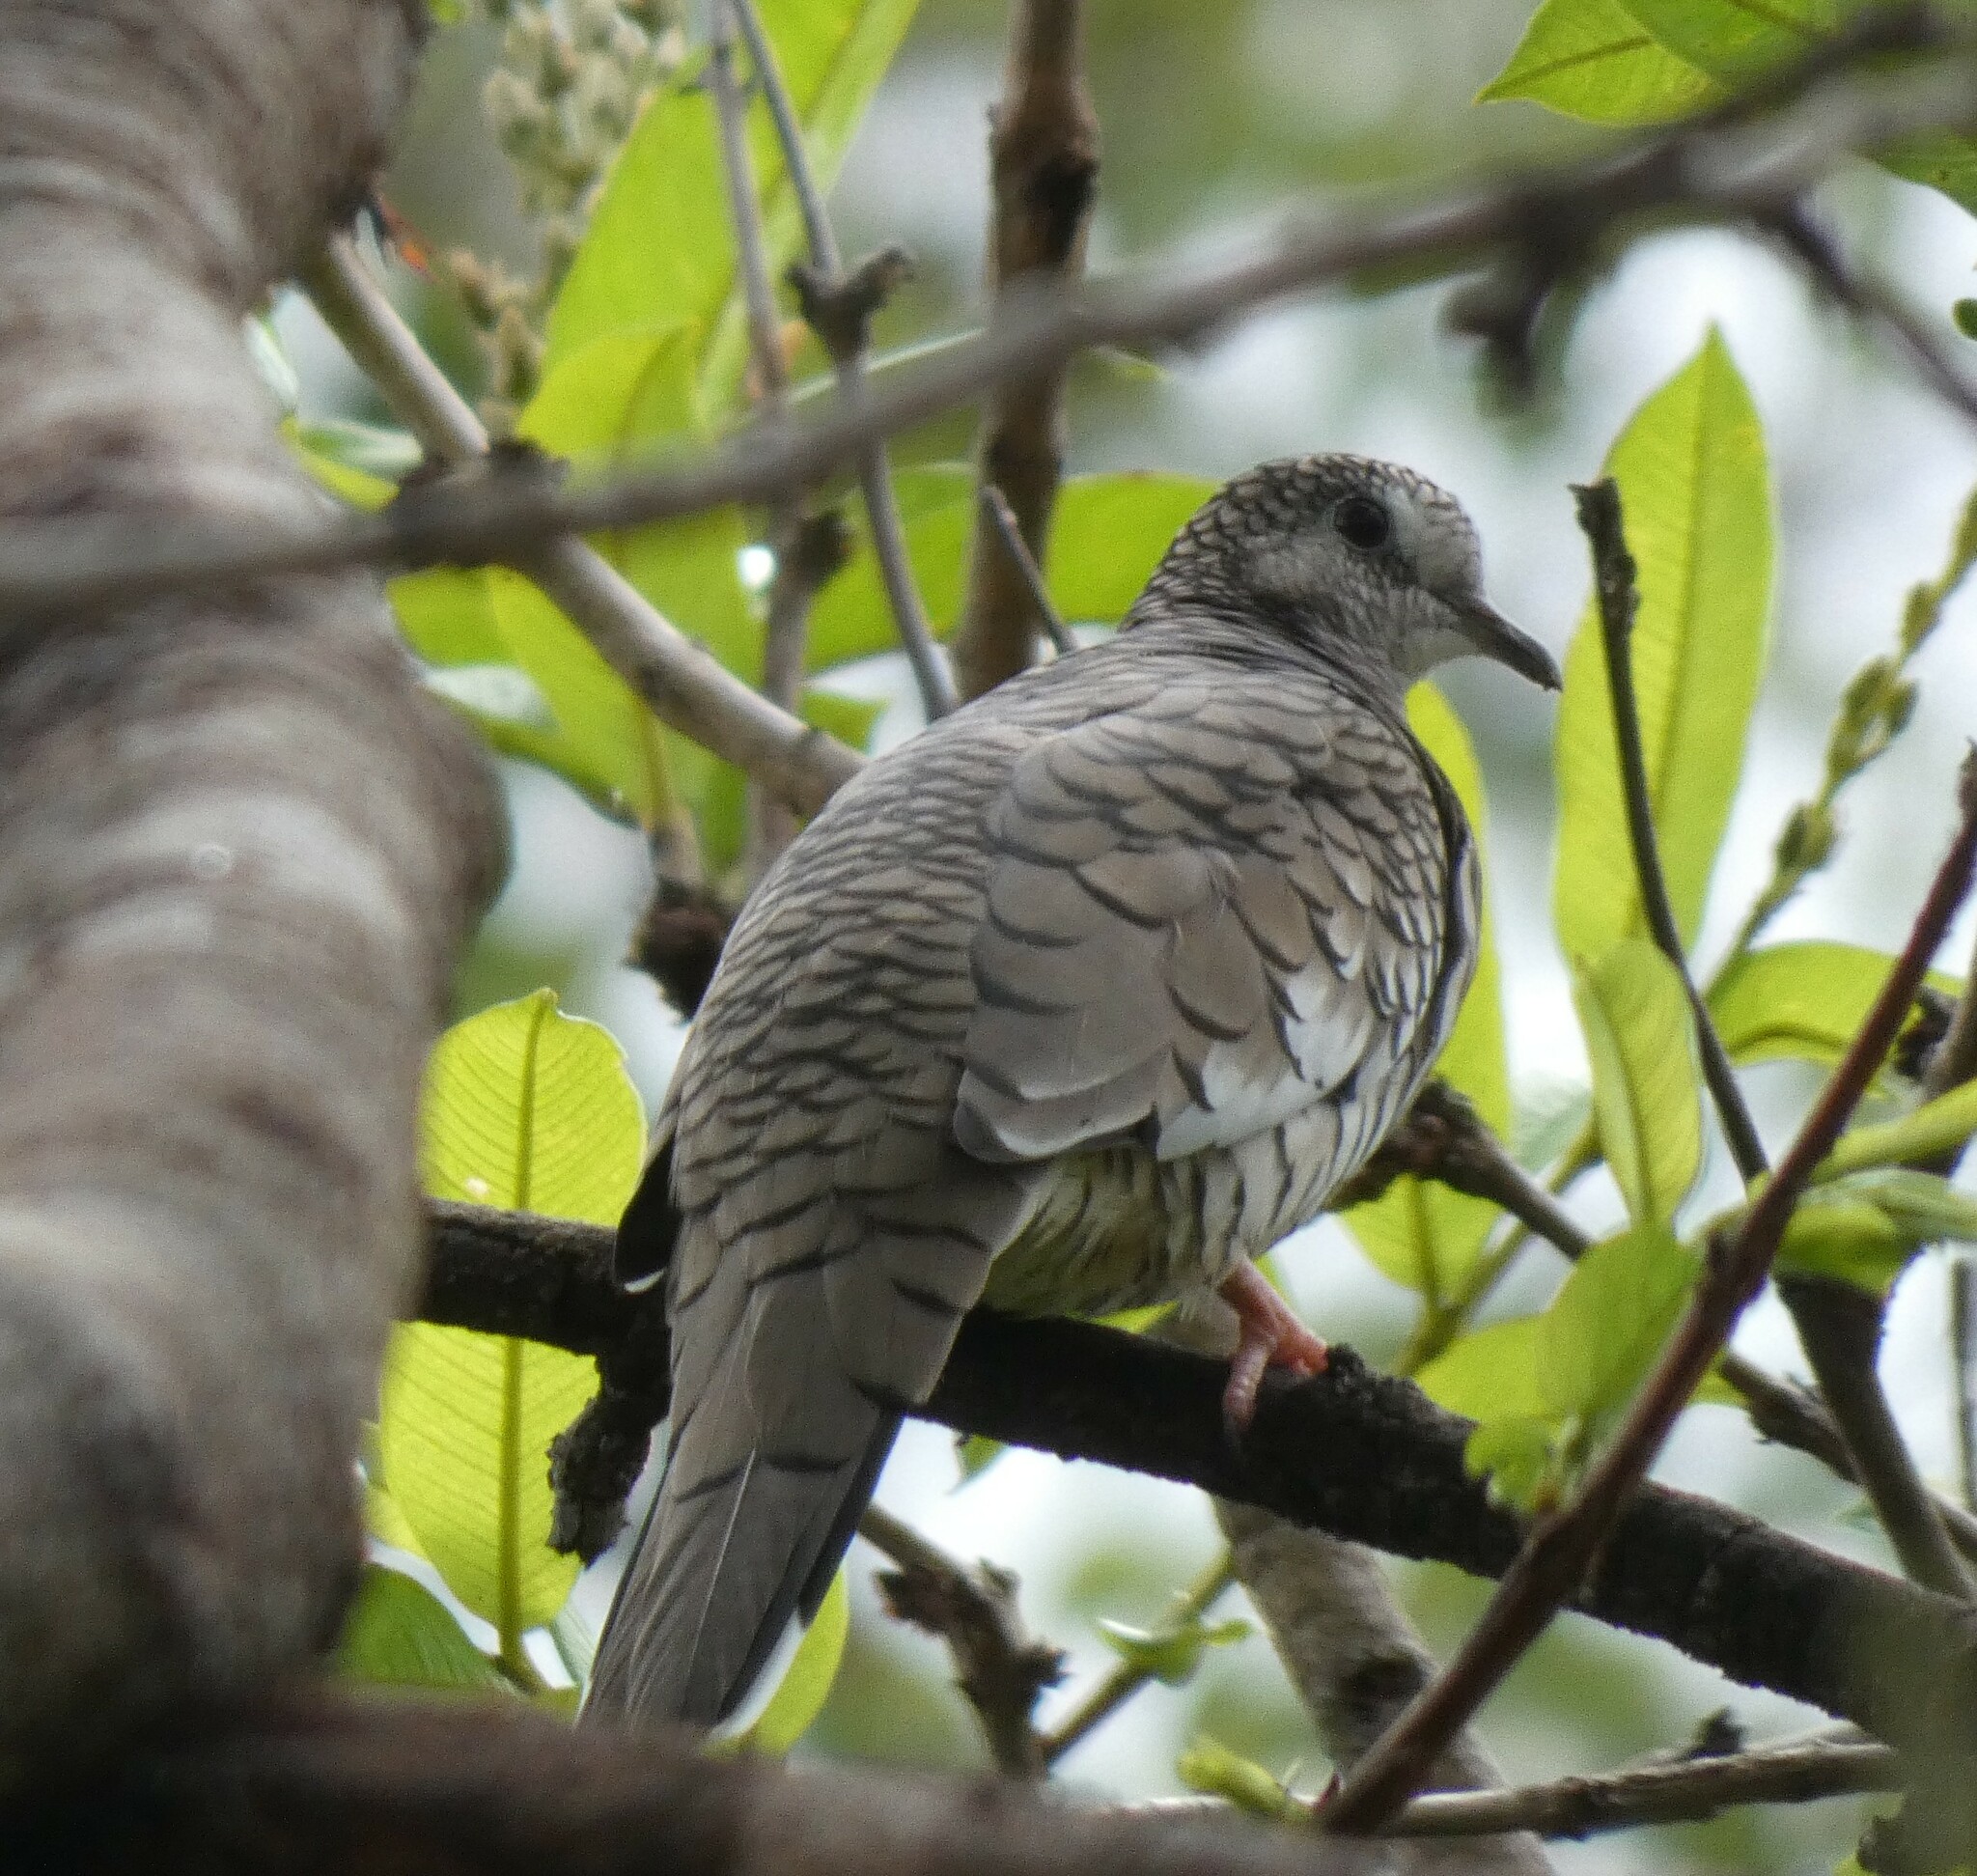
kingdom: Animalia
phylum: Chordata
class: Aves
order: Columbiformes
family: Columbidae
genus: Columbina
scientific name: Columbina squammata
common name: Scaled dove
